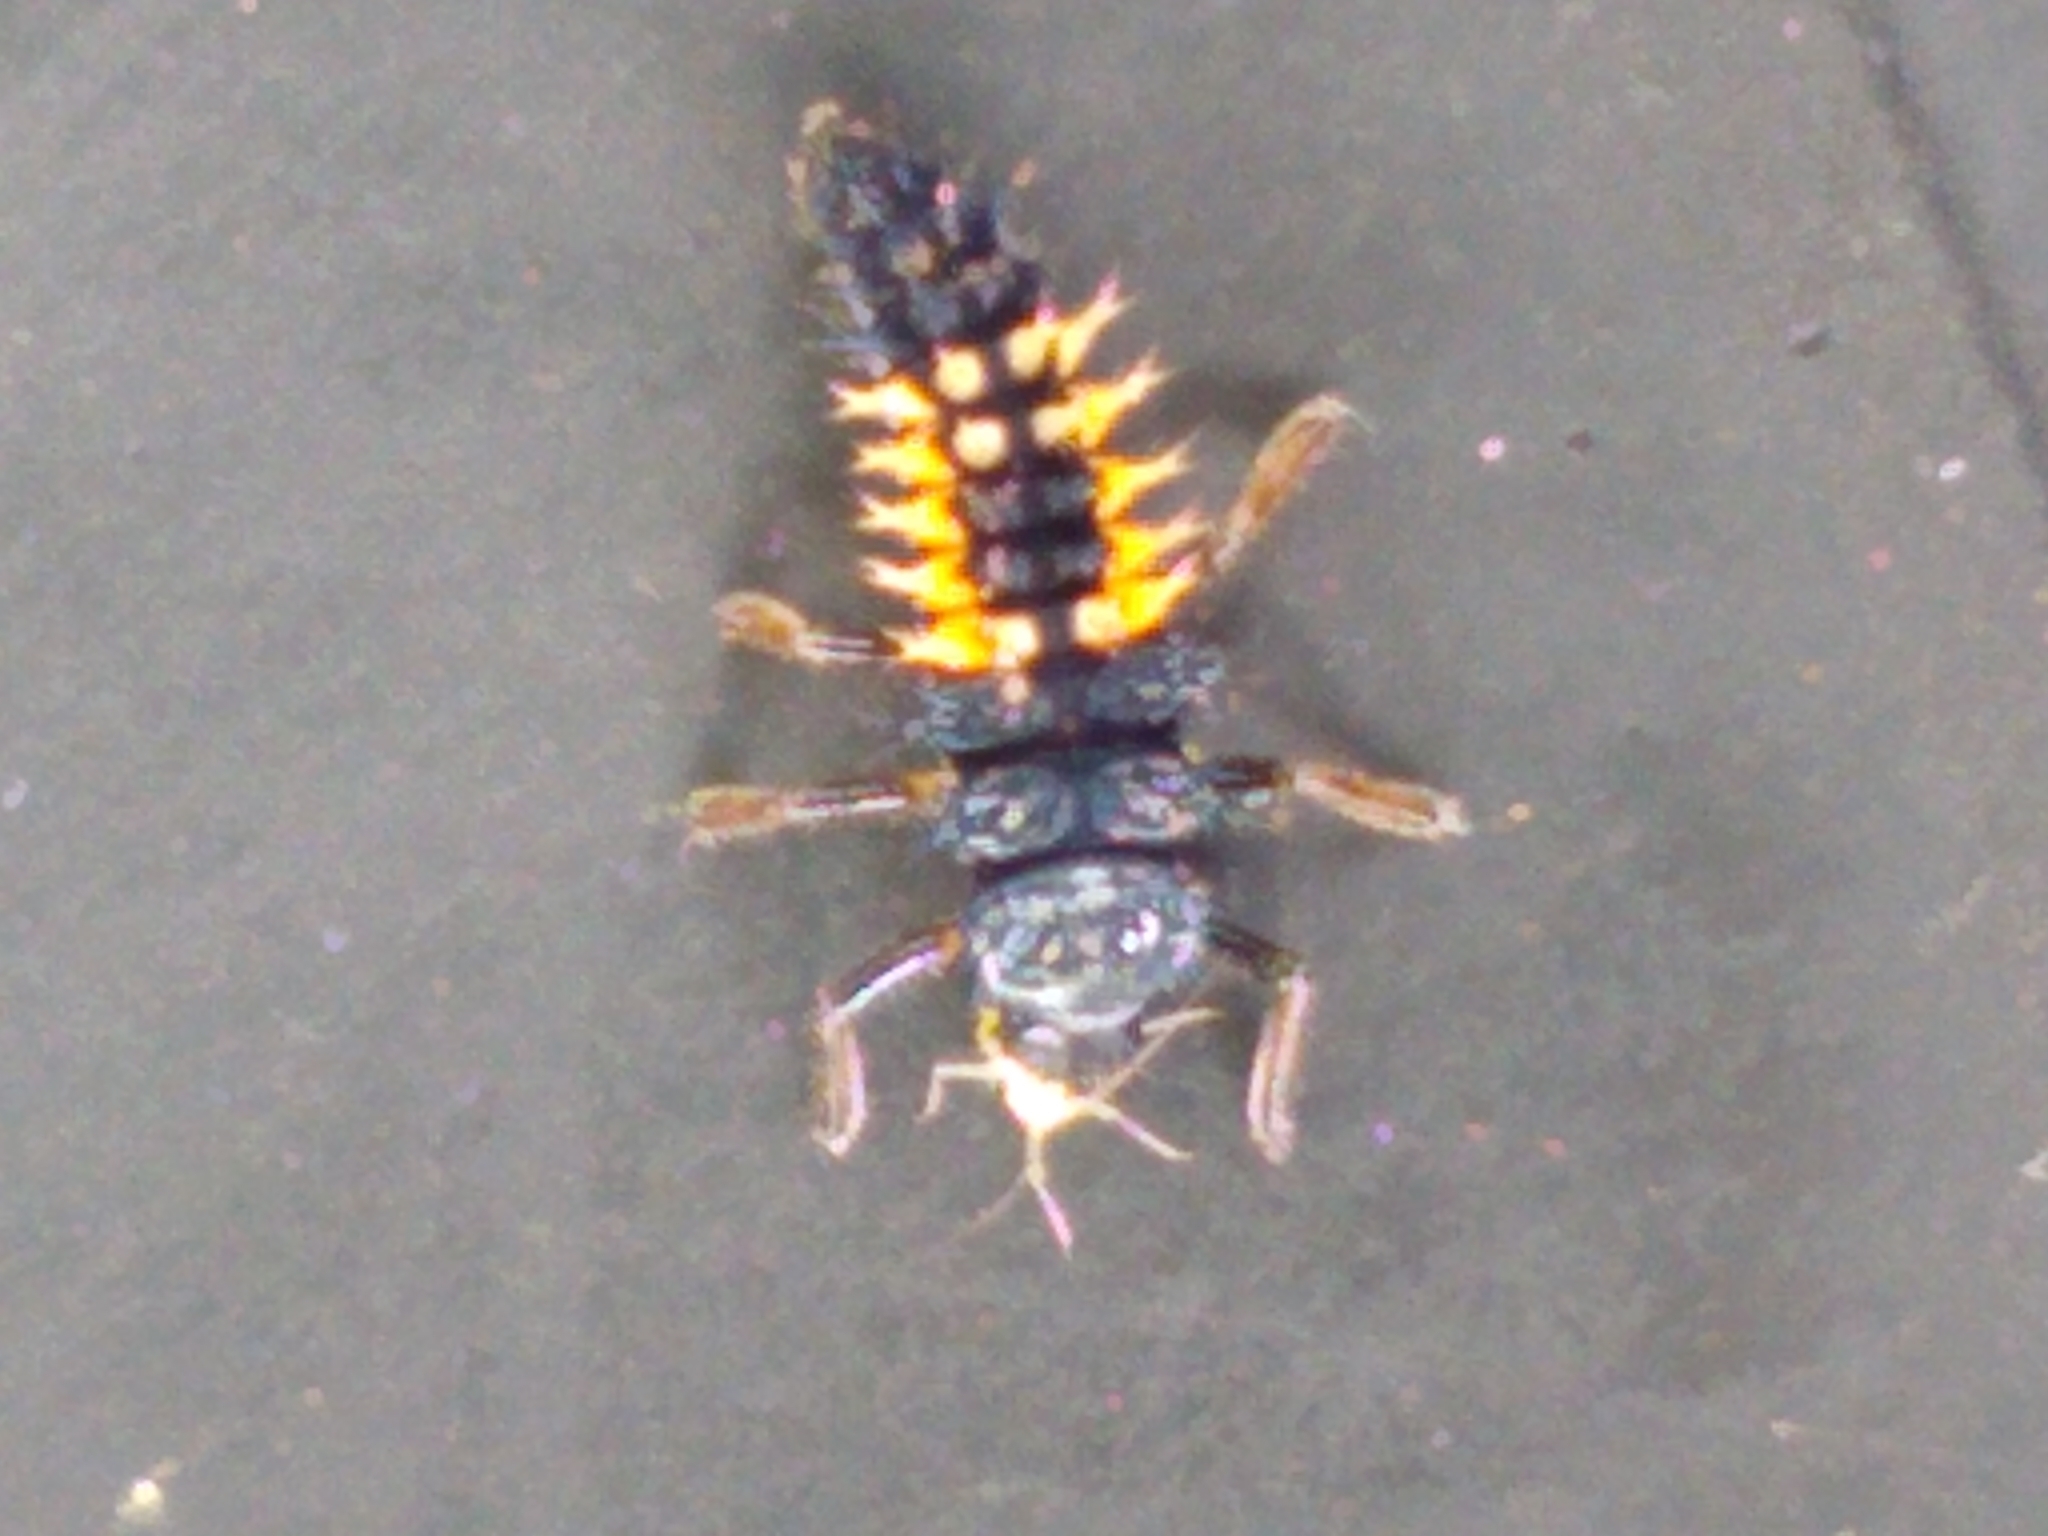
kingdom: Animalia
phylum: Arthropoda
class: Insecta
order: Coleoptera
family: Coccinellidae
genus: Harmonia
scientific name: Harmonia axyridis
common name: Harlequin ladybird
